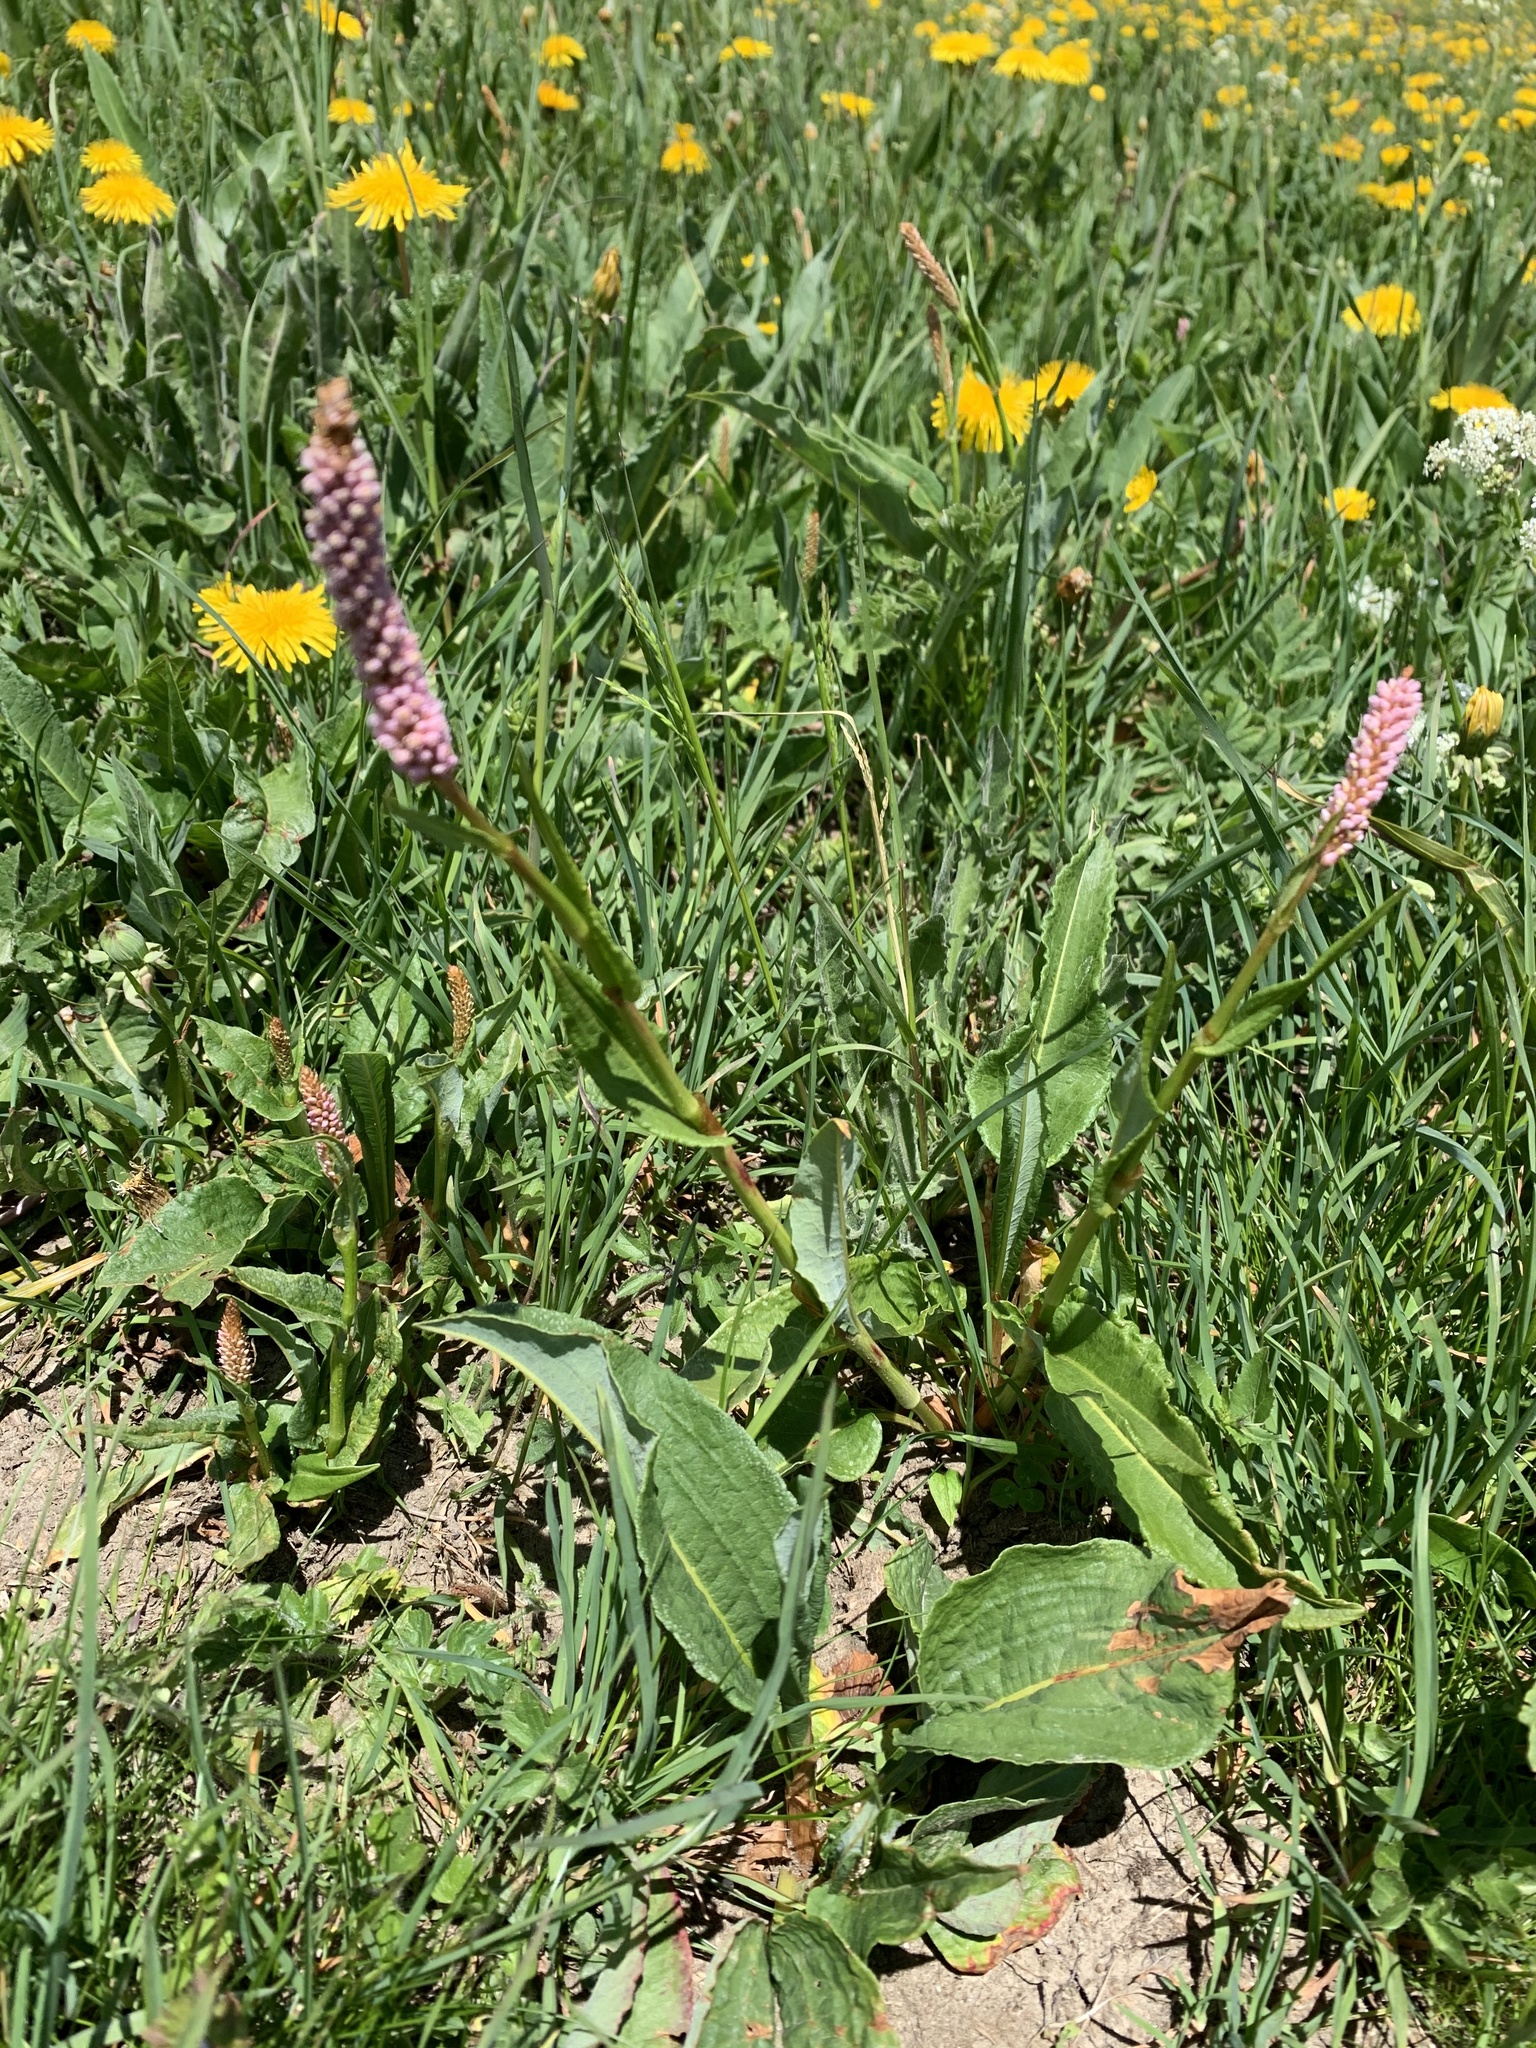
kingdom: Plantae
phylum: Tracheophyta
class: Magnoliopsida
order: Caryophyllales
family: Polygonaceae
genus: Bistorta
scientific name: Bistorta officinalis
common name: Common bistort
